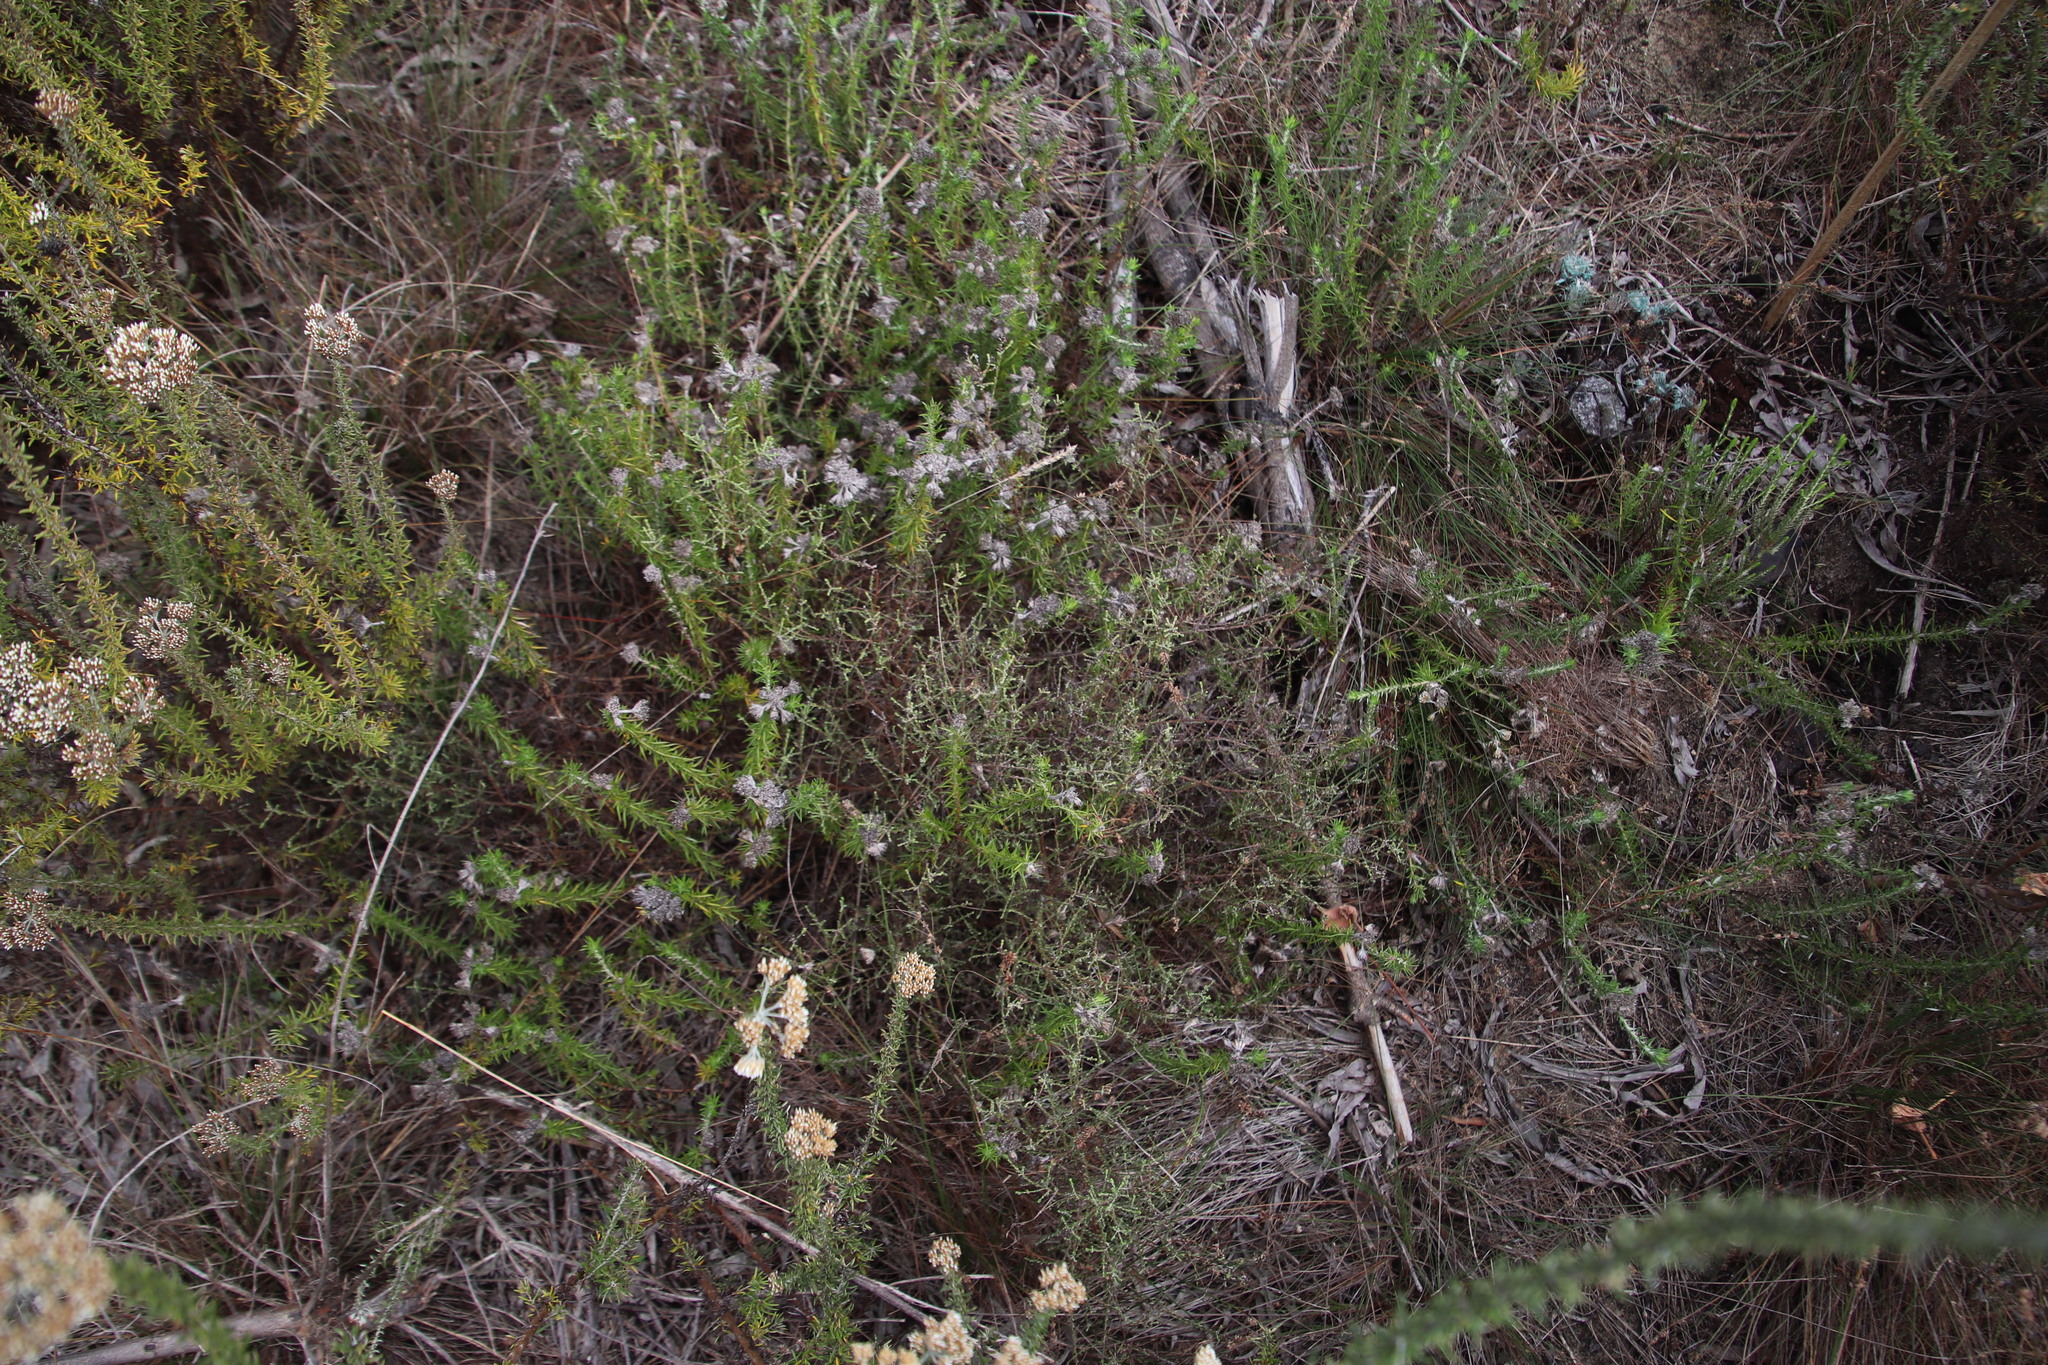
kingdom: Plantae
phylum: Tracheophyta
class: Magnoliopsida
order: Asterales
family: Asteraceae
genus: Myrovernix
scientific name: Myrovernix scaber
